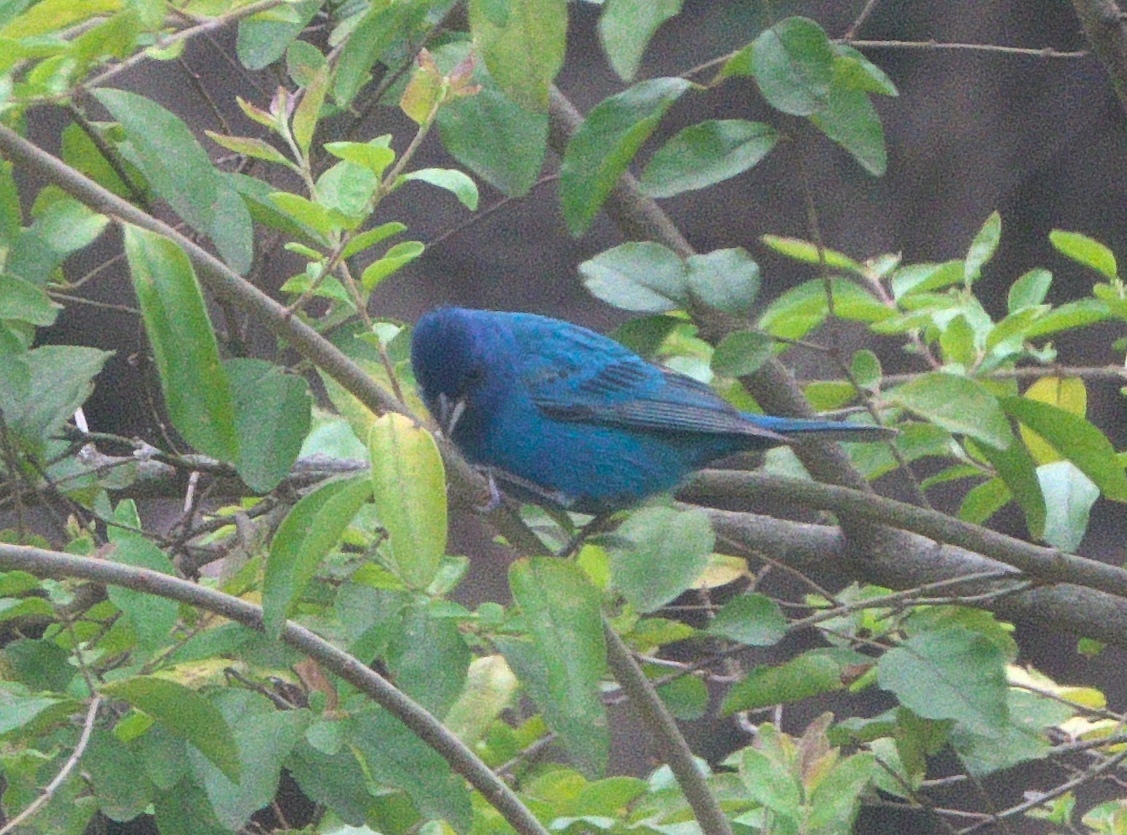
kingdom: Animalia
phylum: Chordata
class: Aves
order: Passeriformes
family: Cardinalidae
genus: Passerina
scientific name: Passerina cyanea
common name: Indigo bunting
